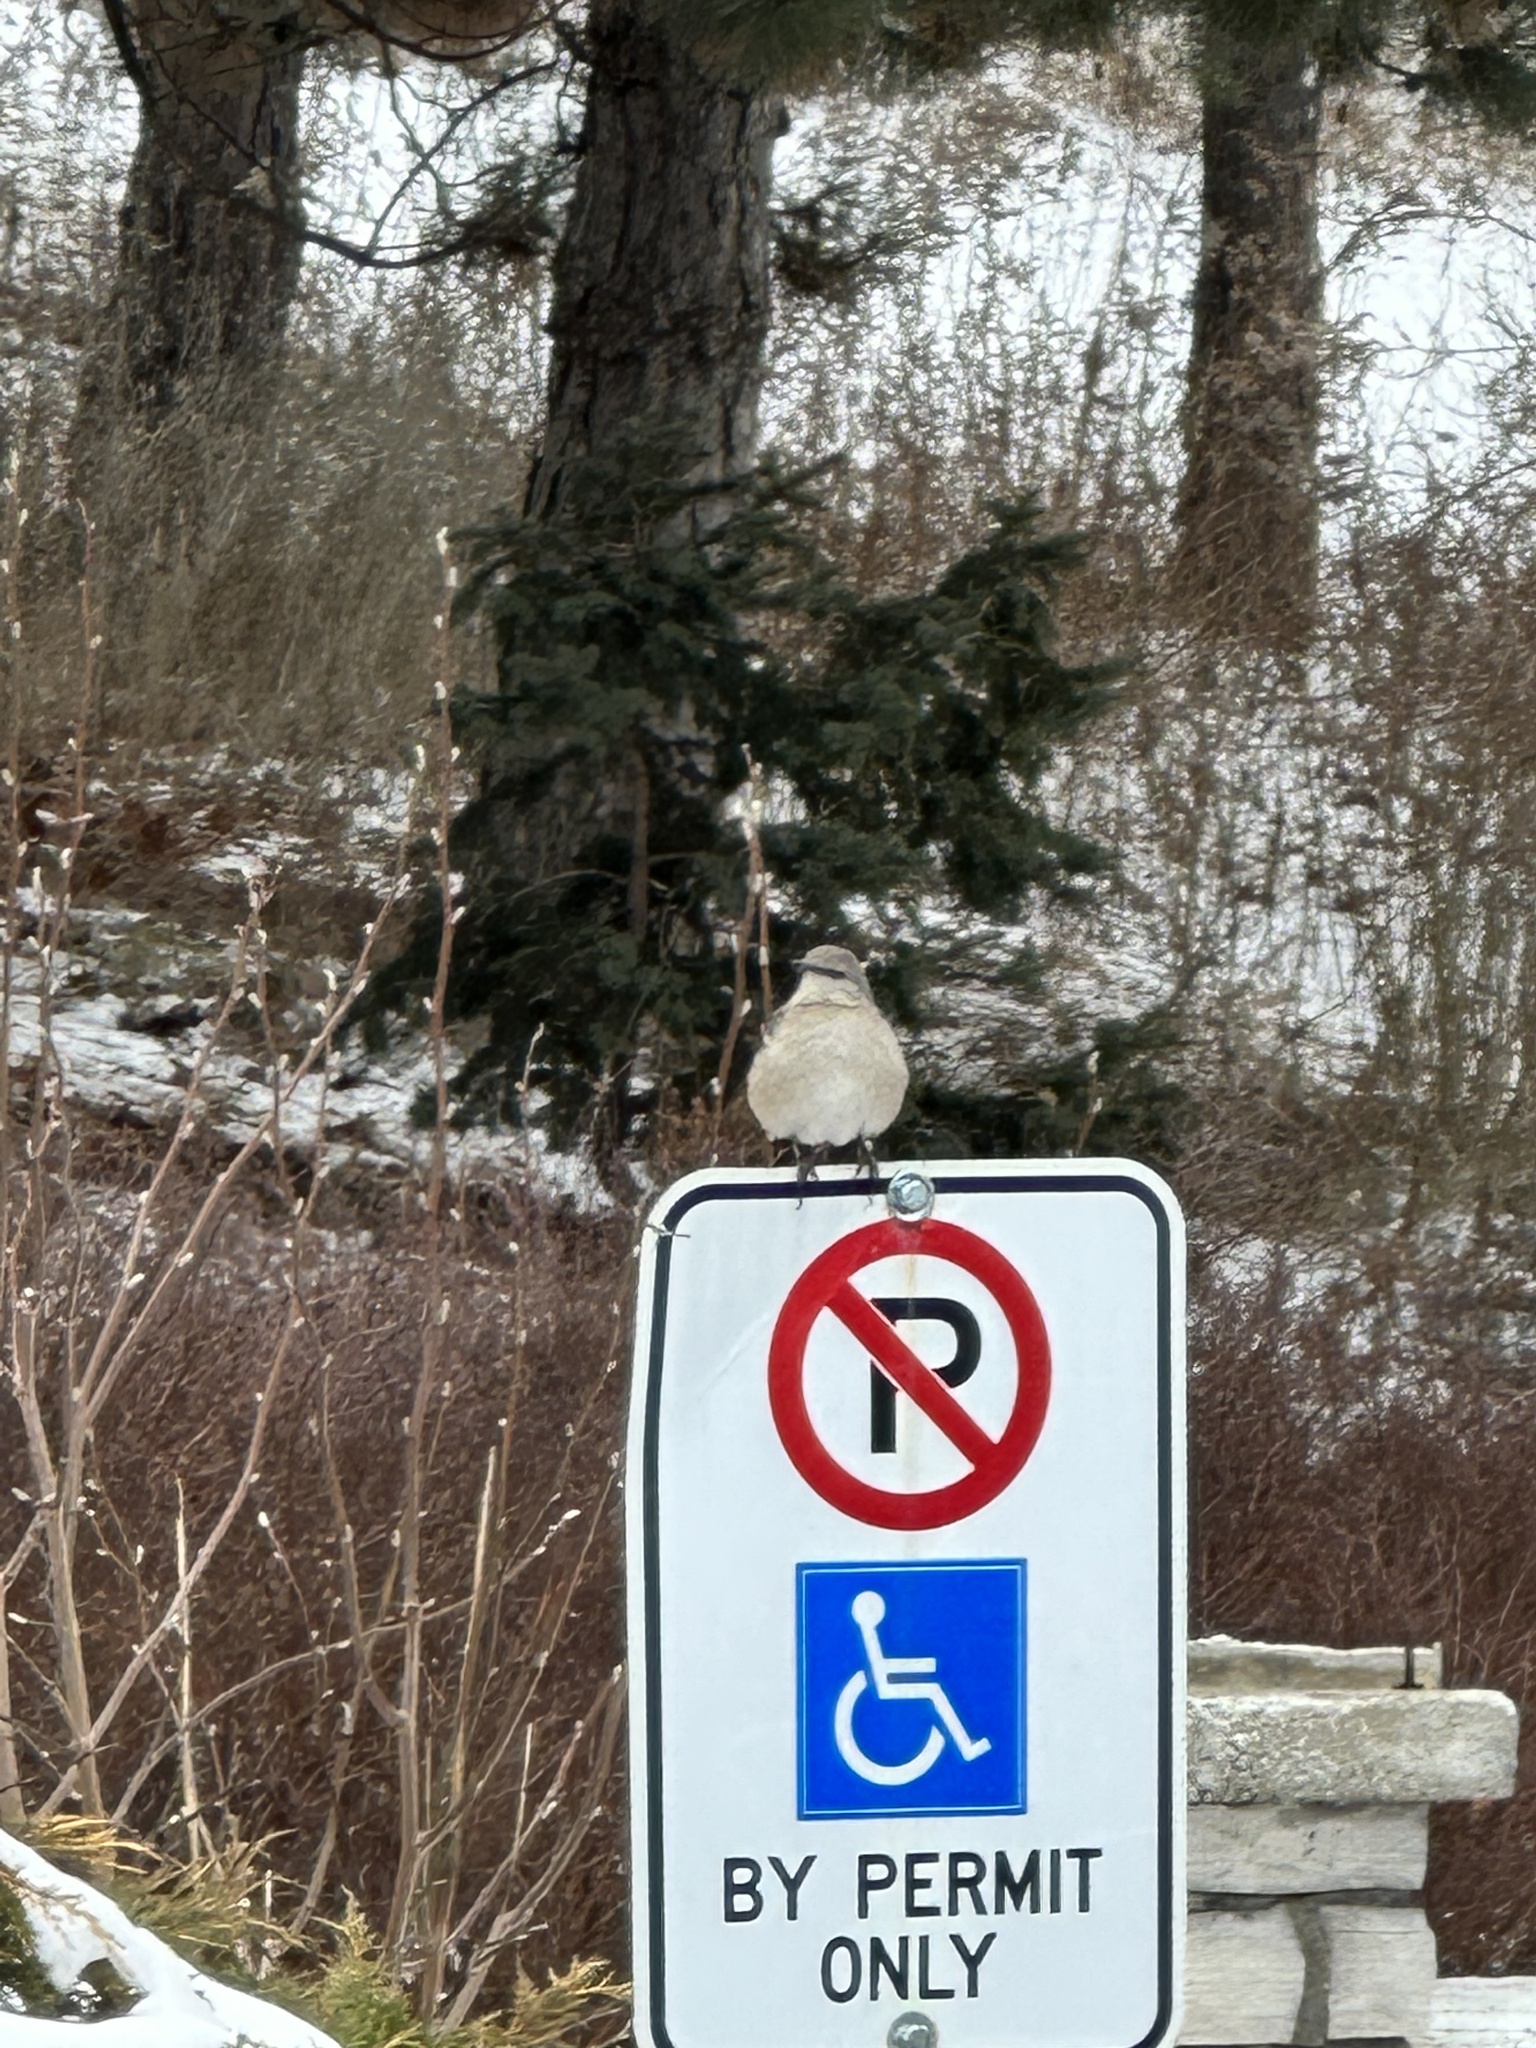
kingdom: Animalia
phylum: Chordata
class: Aves
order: Passeriformes
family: Mimidae
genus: Mimus
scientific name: Mimus polyglottos
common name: Northern mockingbird
